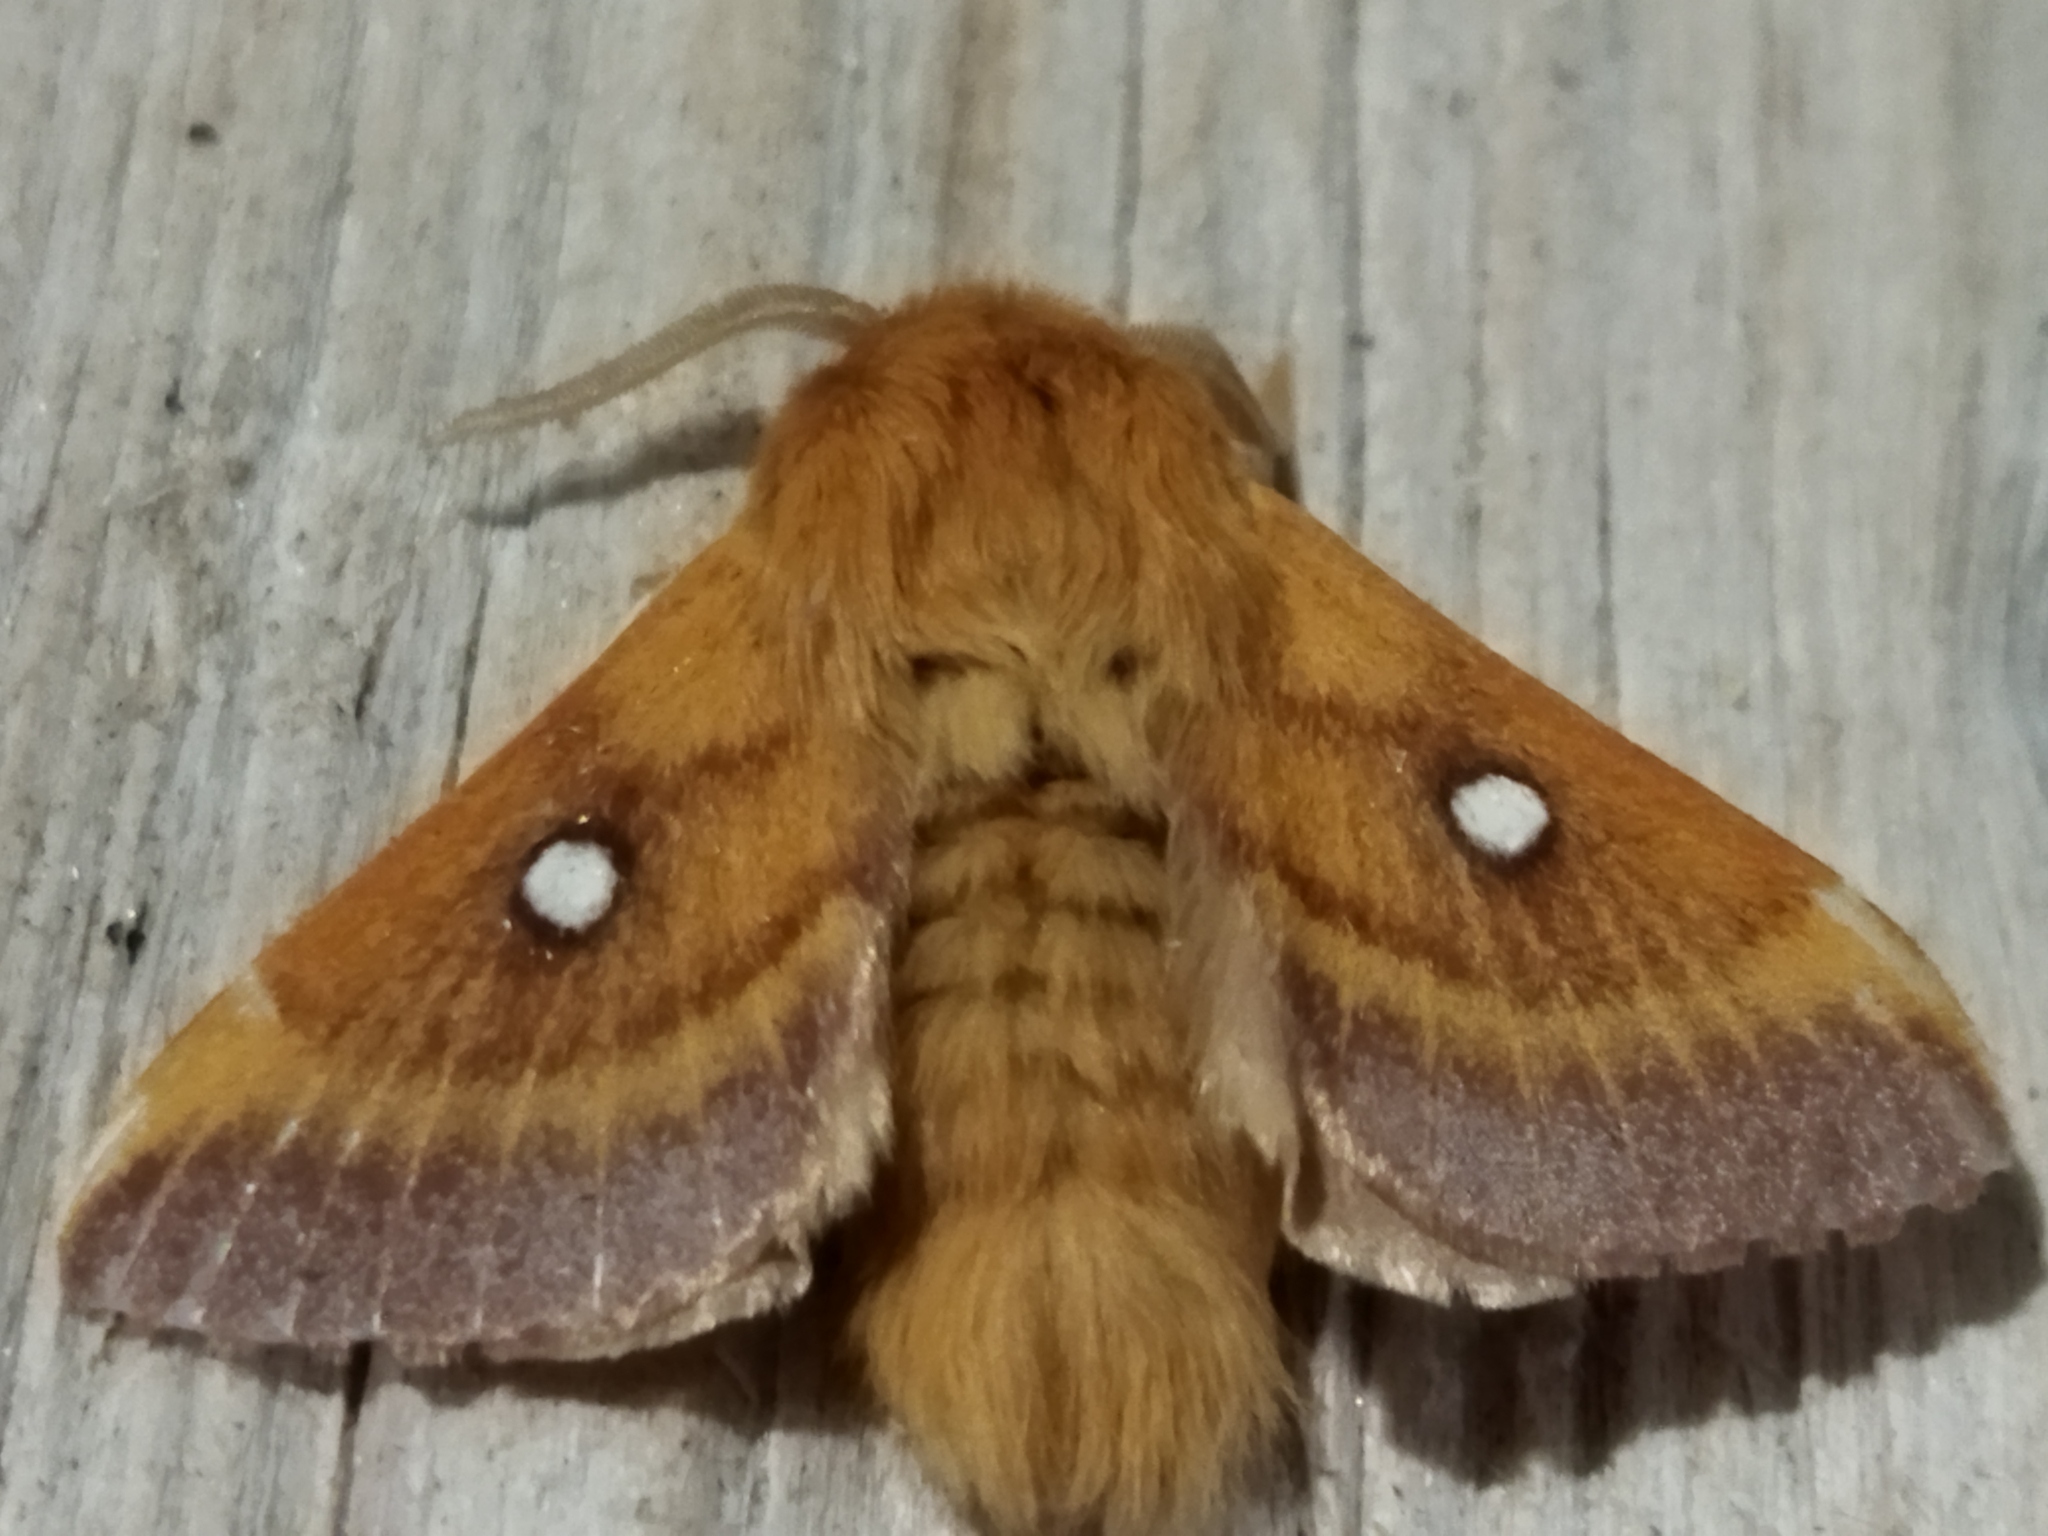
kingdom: Animalia
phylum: Arthropoda
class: Insecta
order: Lepidoptera
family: Lasiocampidae
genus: Eriogaster
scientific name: Eriogaster catax
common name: Eastern eggar
